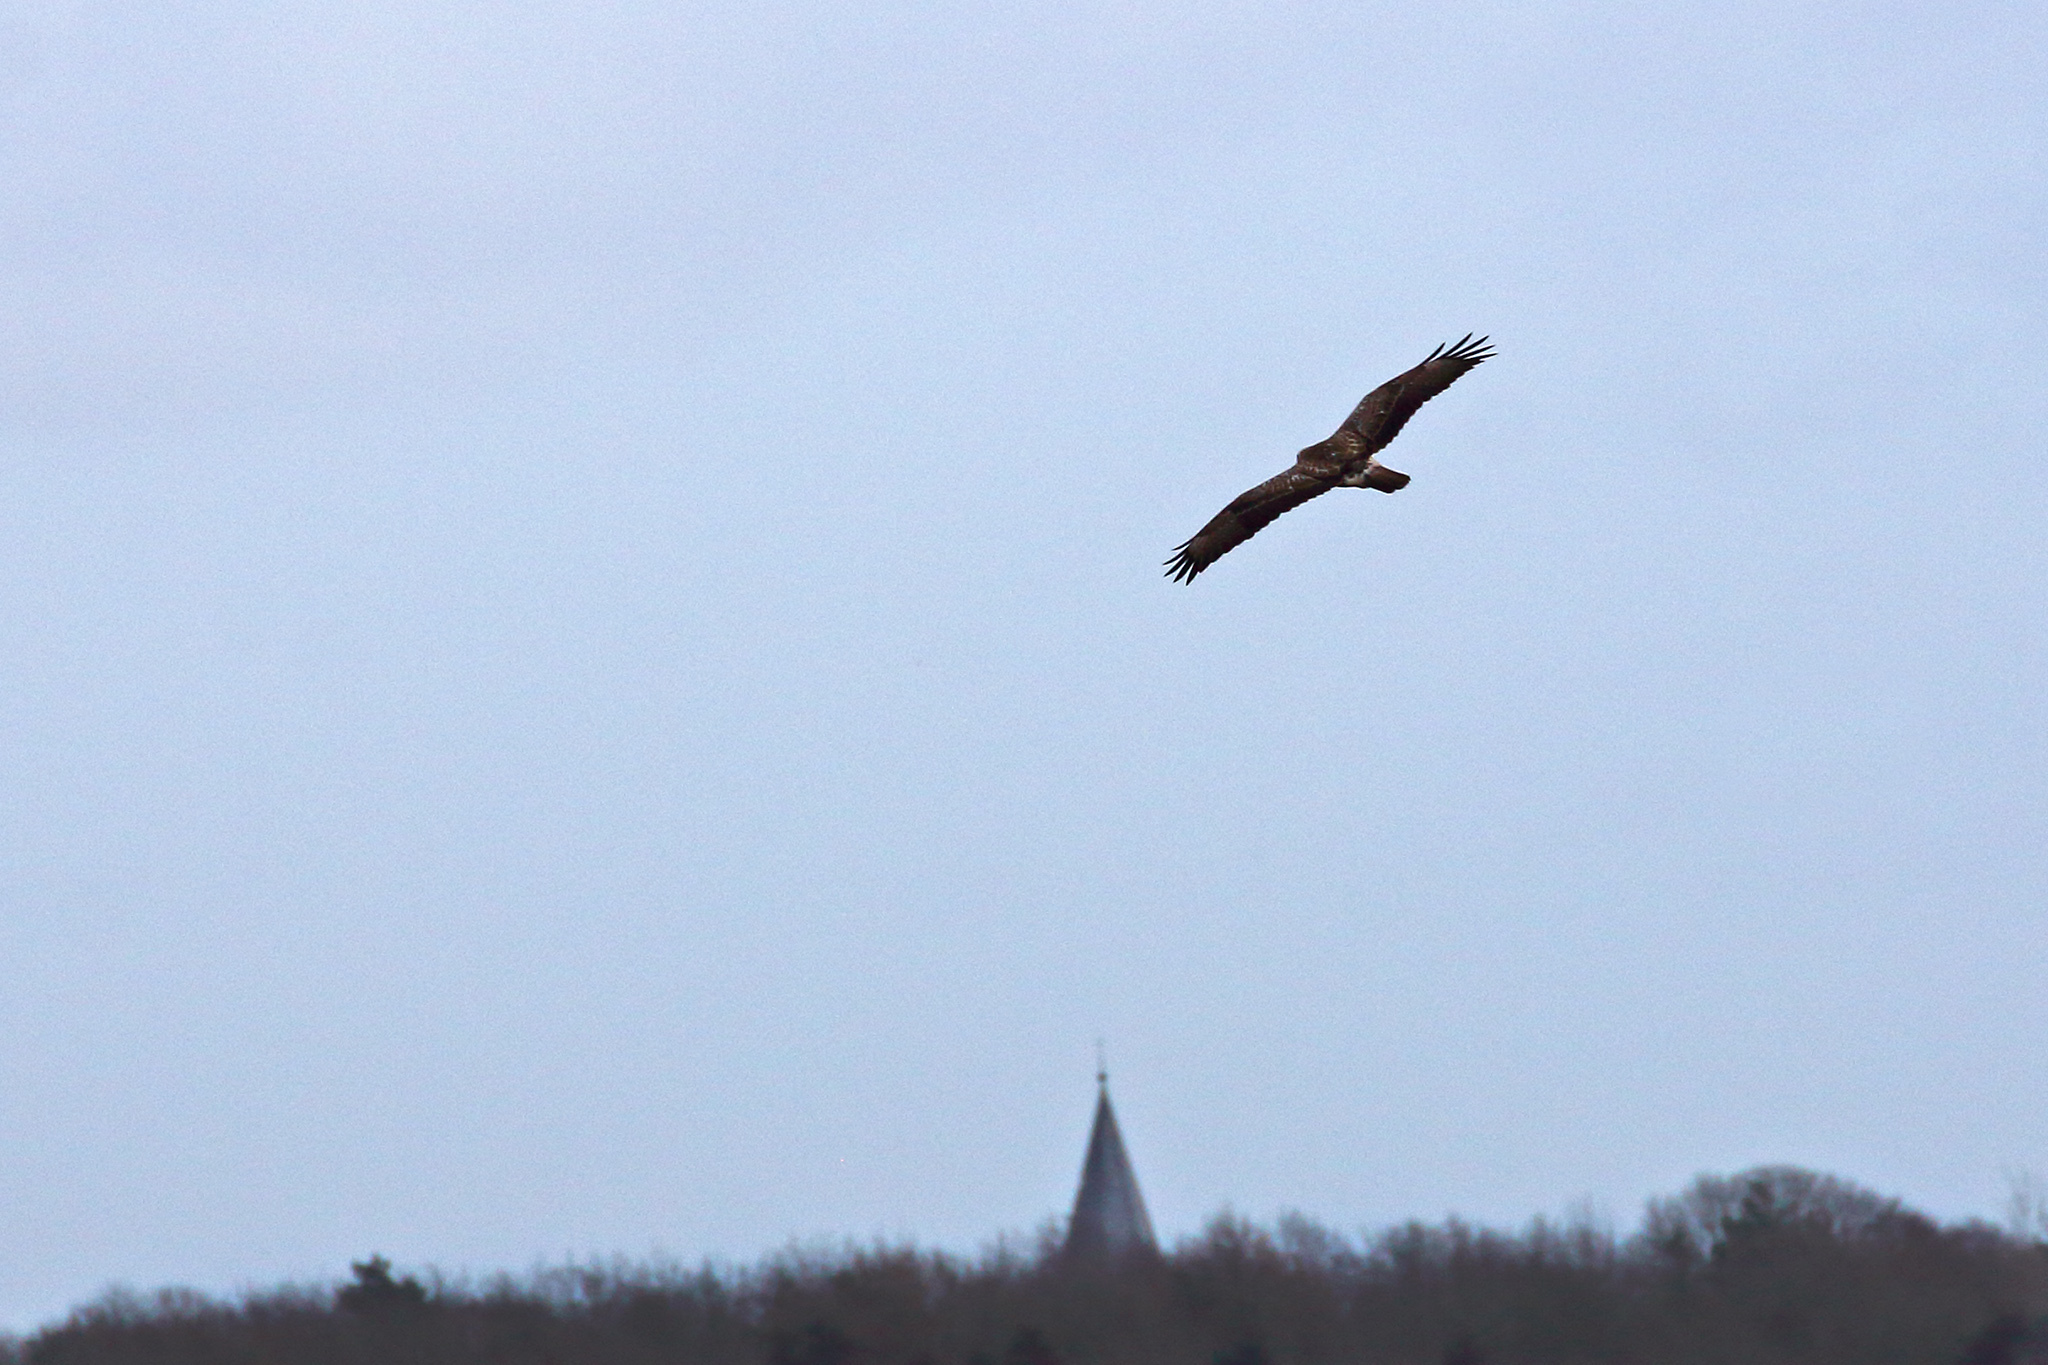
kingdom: Animalia
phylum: Chordata
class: Aves
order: Accipitriformes
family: Accipitridae
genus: Buteo
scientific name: Buteo buteo
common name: Common buzzard
